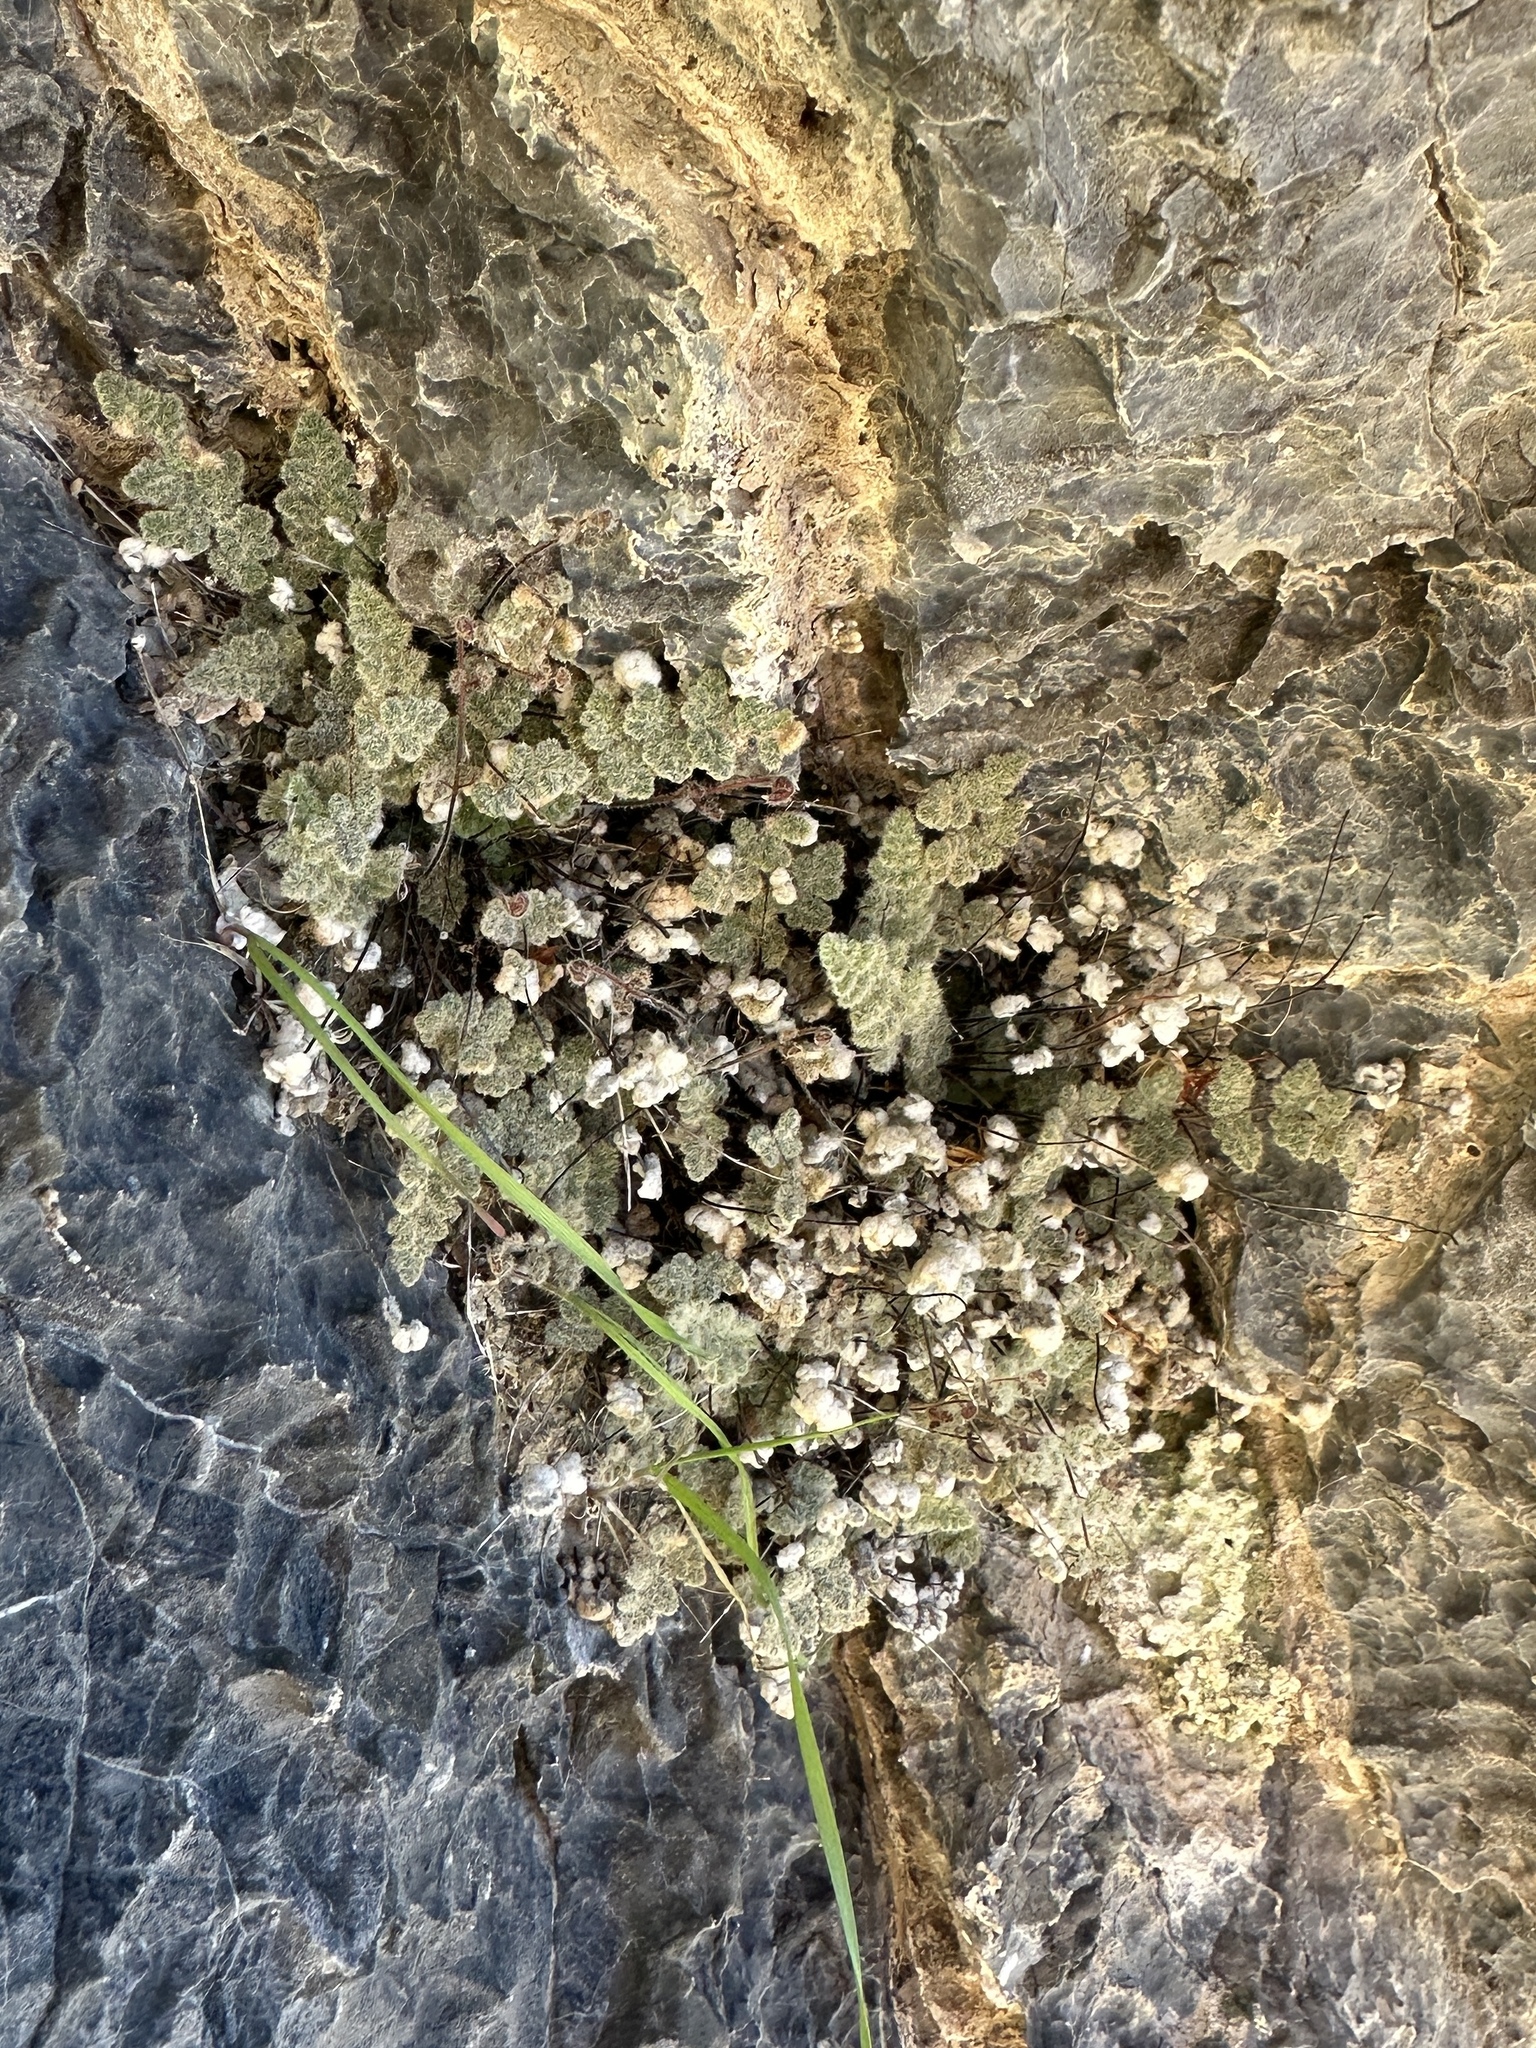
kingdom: Plantae
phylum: Tracheophyta
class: Polypodiopsida
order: Polypodiales
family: Pteridaceae
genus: Myriopteris
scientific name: Myriopteris parryi
